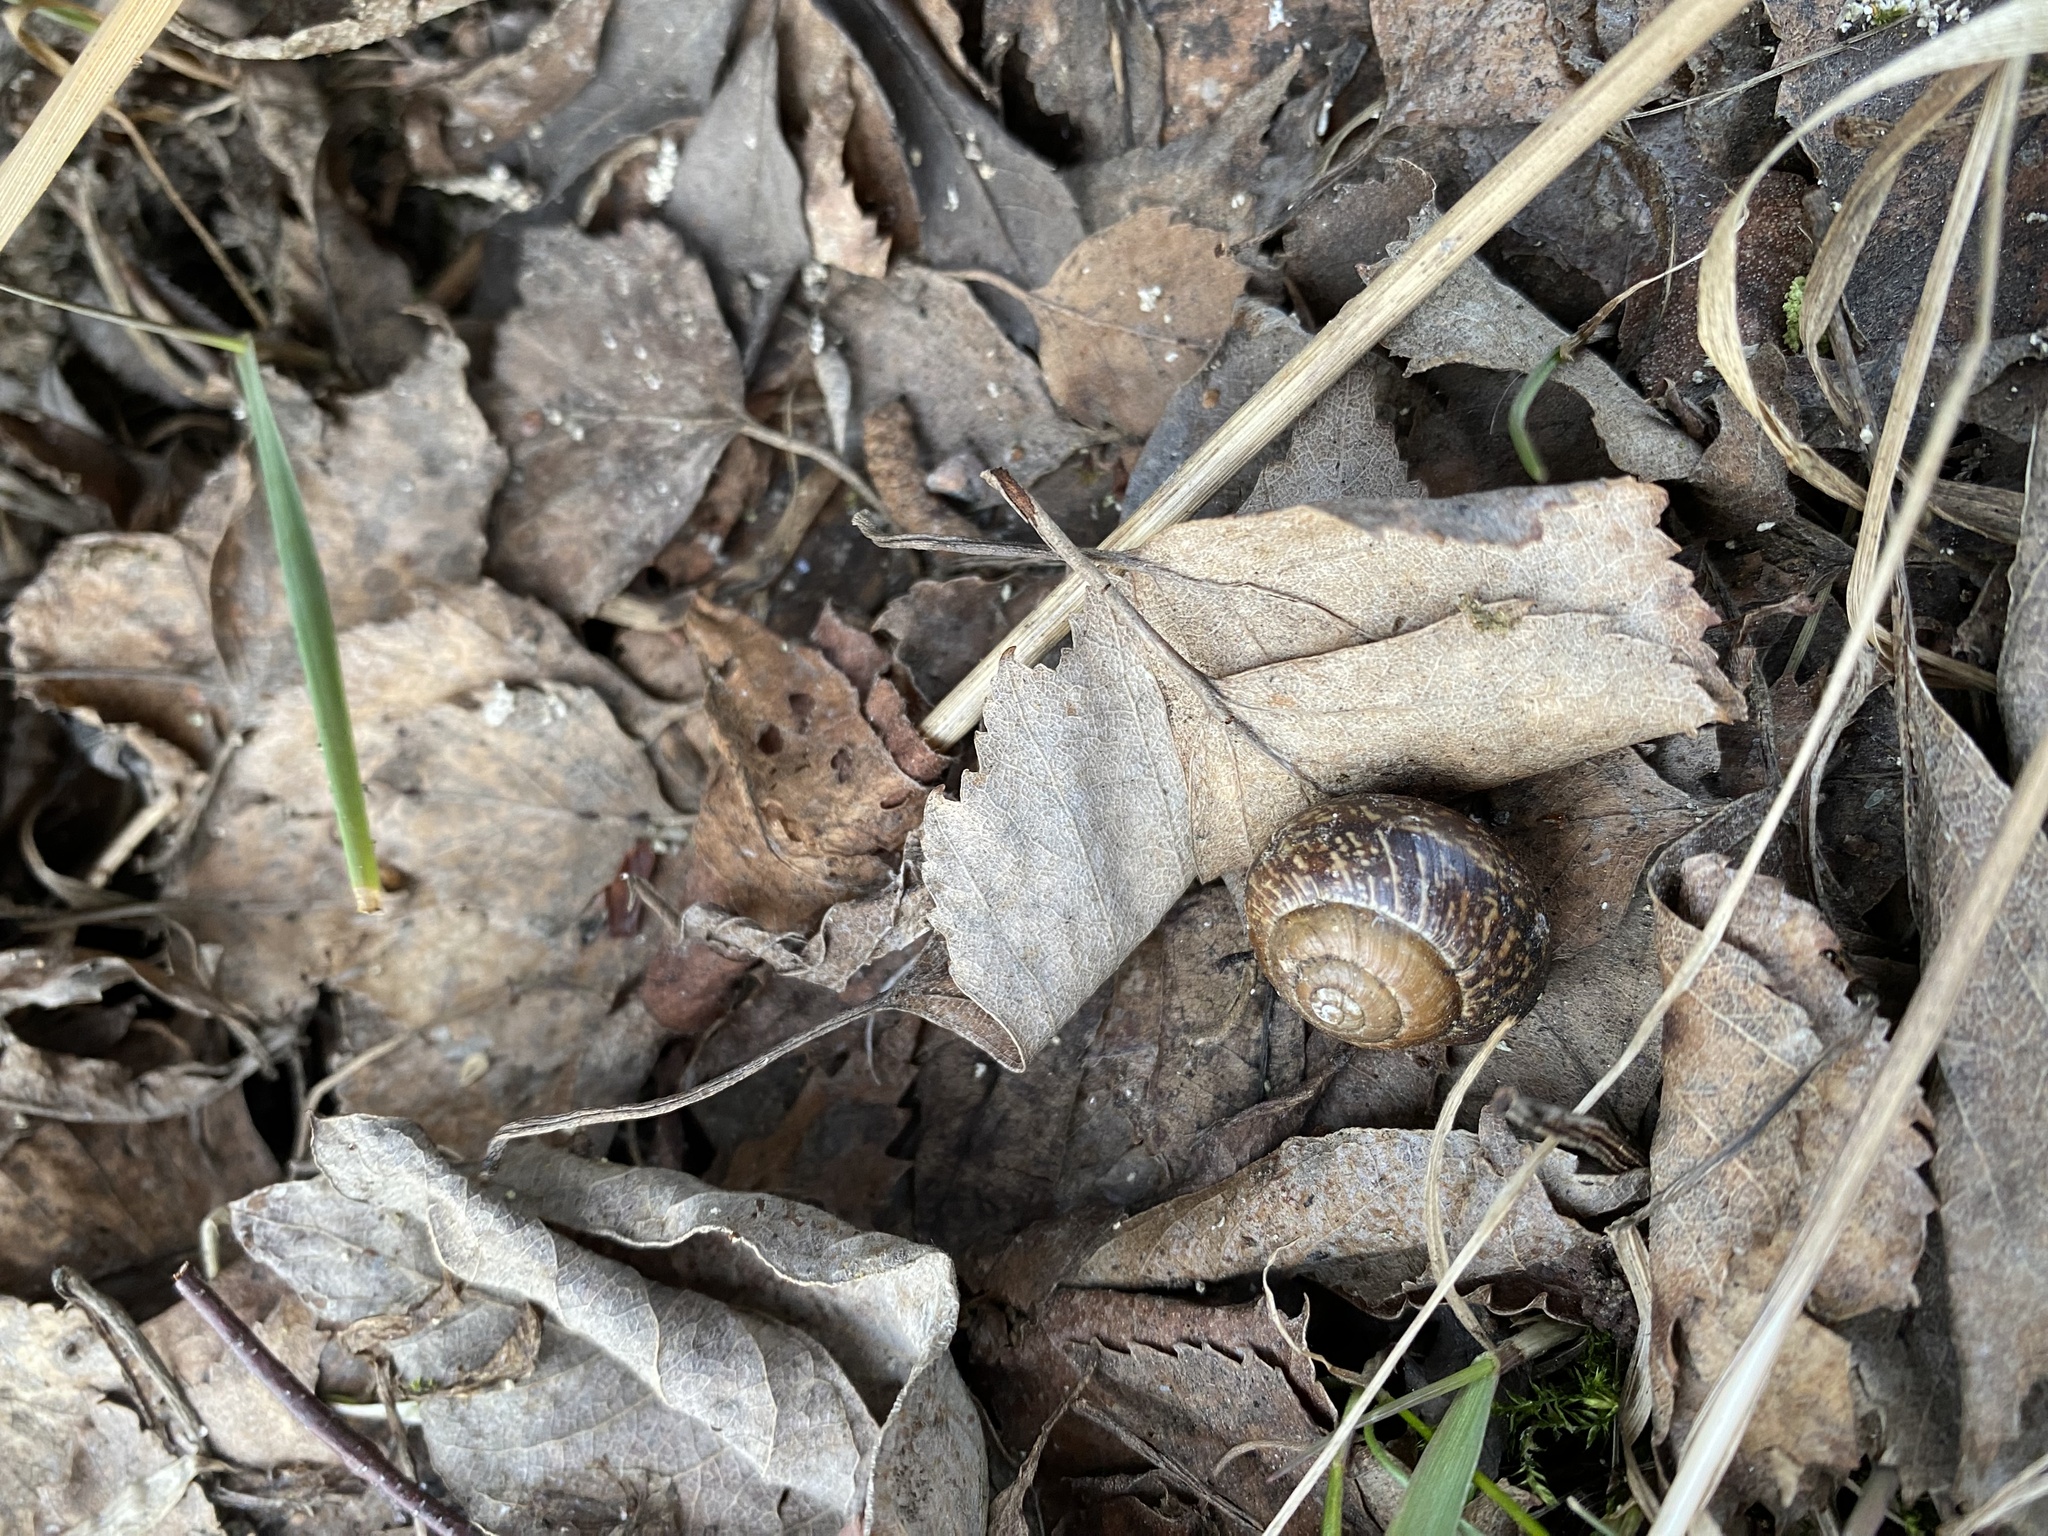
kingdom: Animalia
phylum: Mollusca
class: Gastropoda
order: Stylommatophora
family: Helicidae
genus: Arianta
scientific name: Arianta arbustorum
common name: Copse snail
